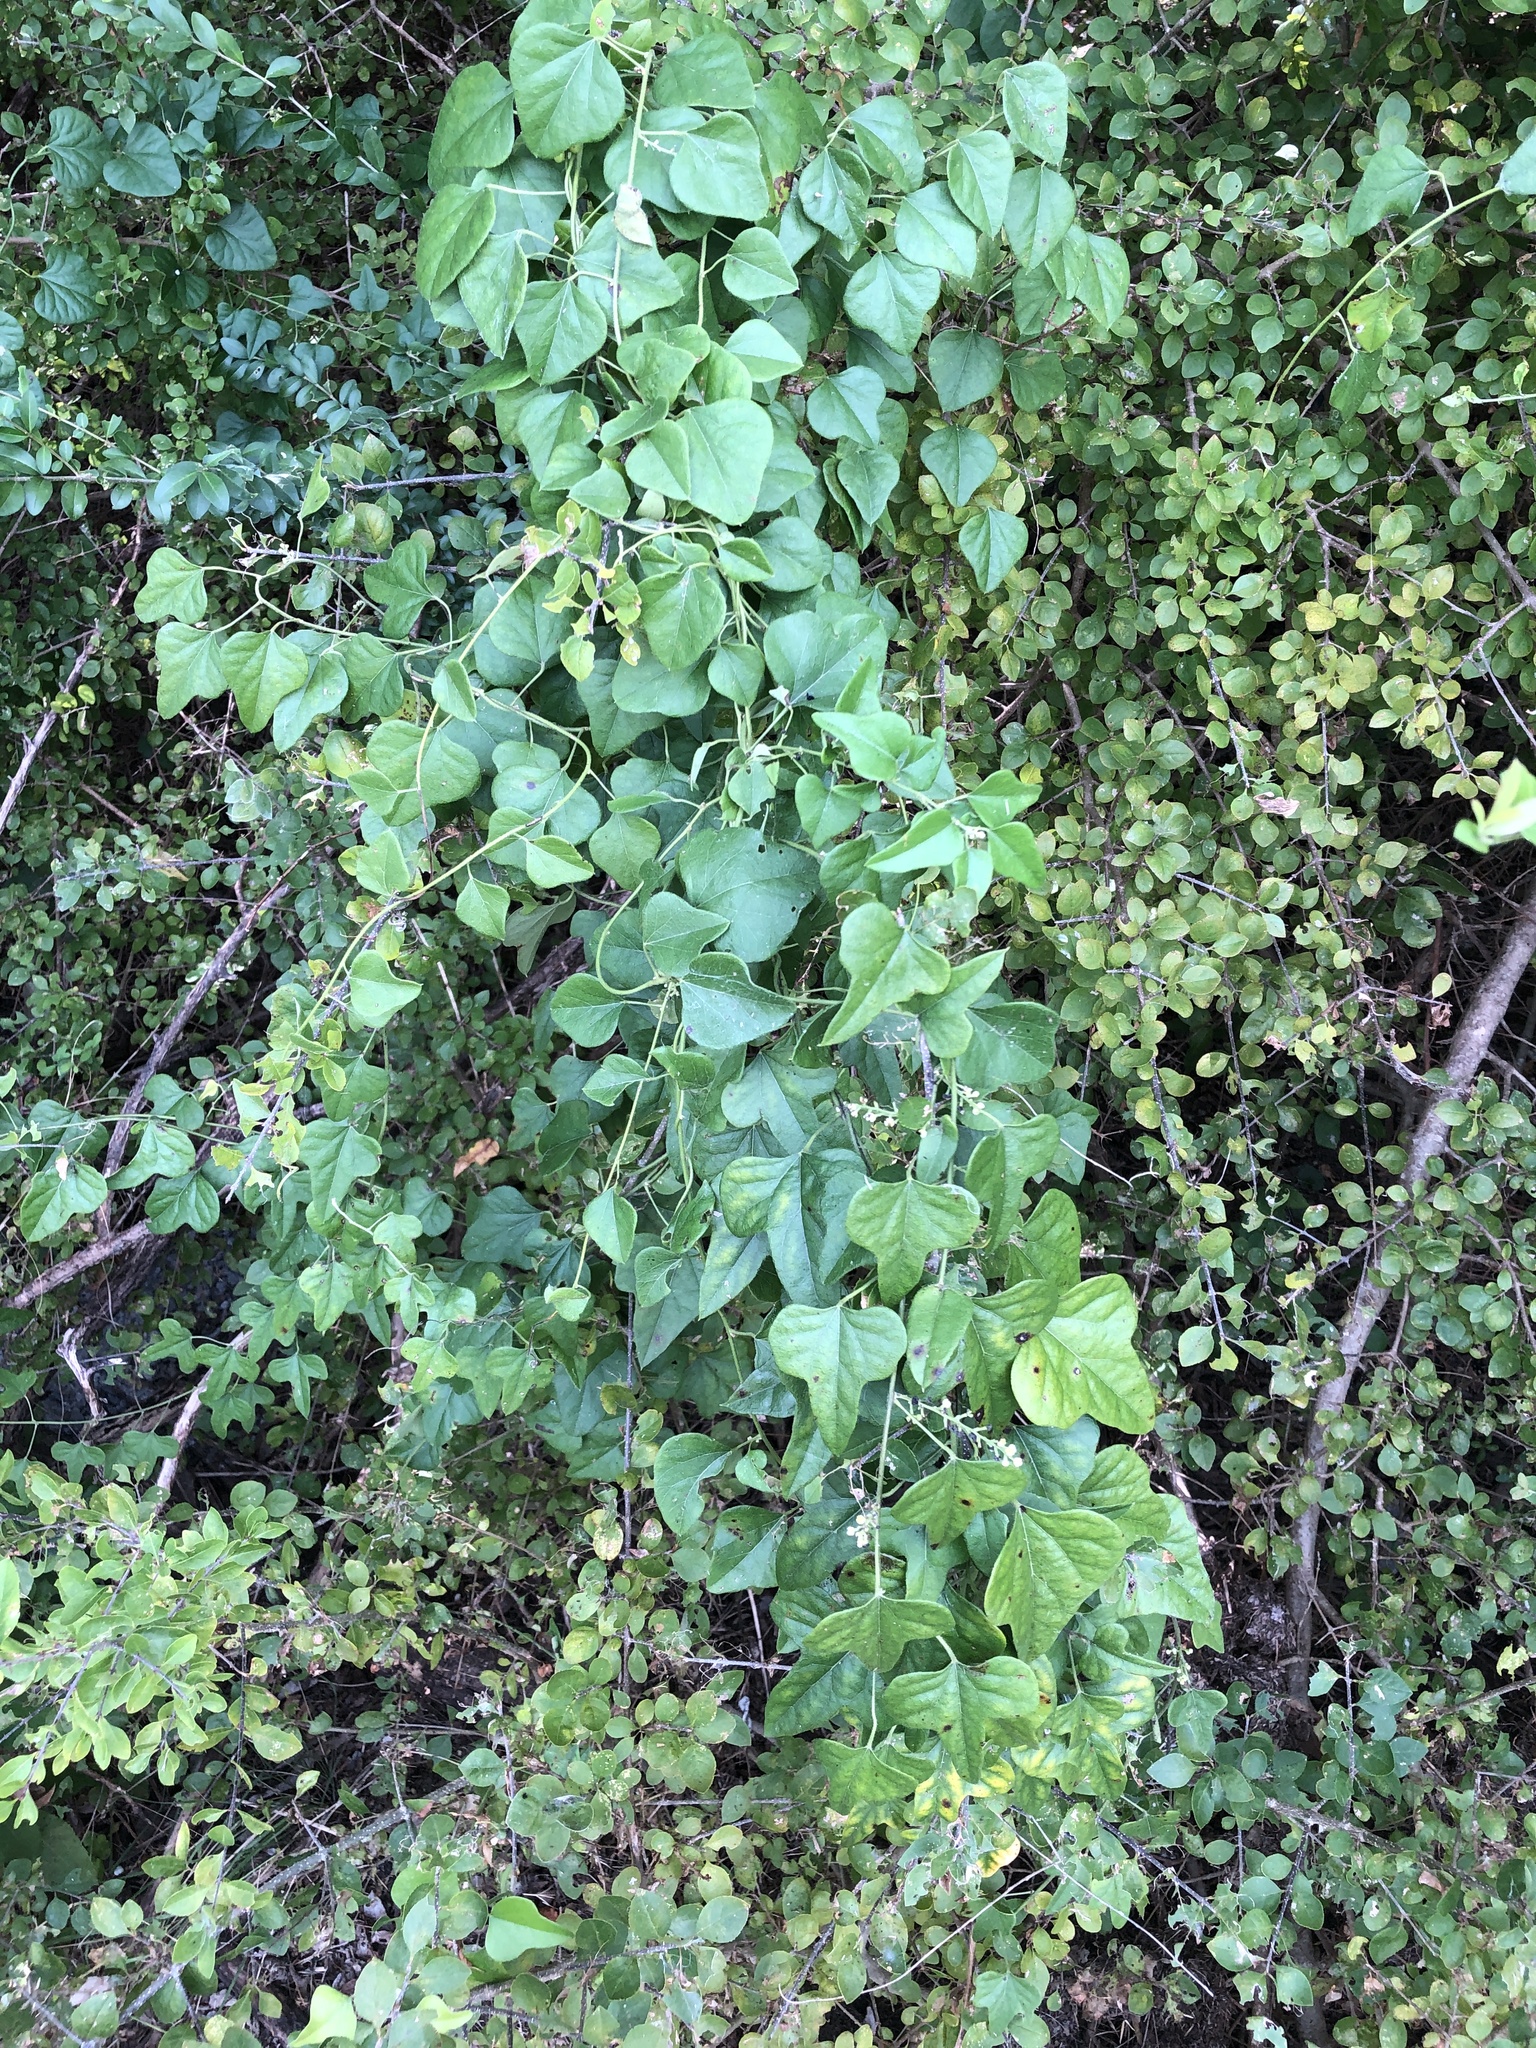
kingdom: Plantae
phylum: Tracheophyta
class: Magnoliopsida
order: Ranunculales
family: Menispermaceae
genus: Cocculus
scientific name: Cocculus carolinus
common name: Carolina moonseed
